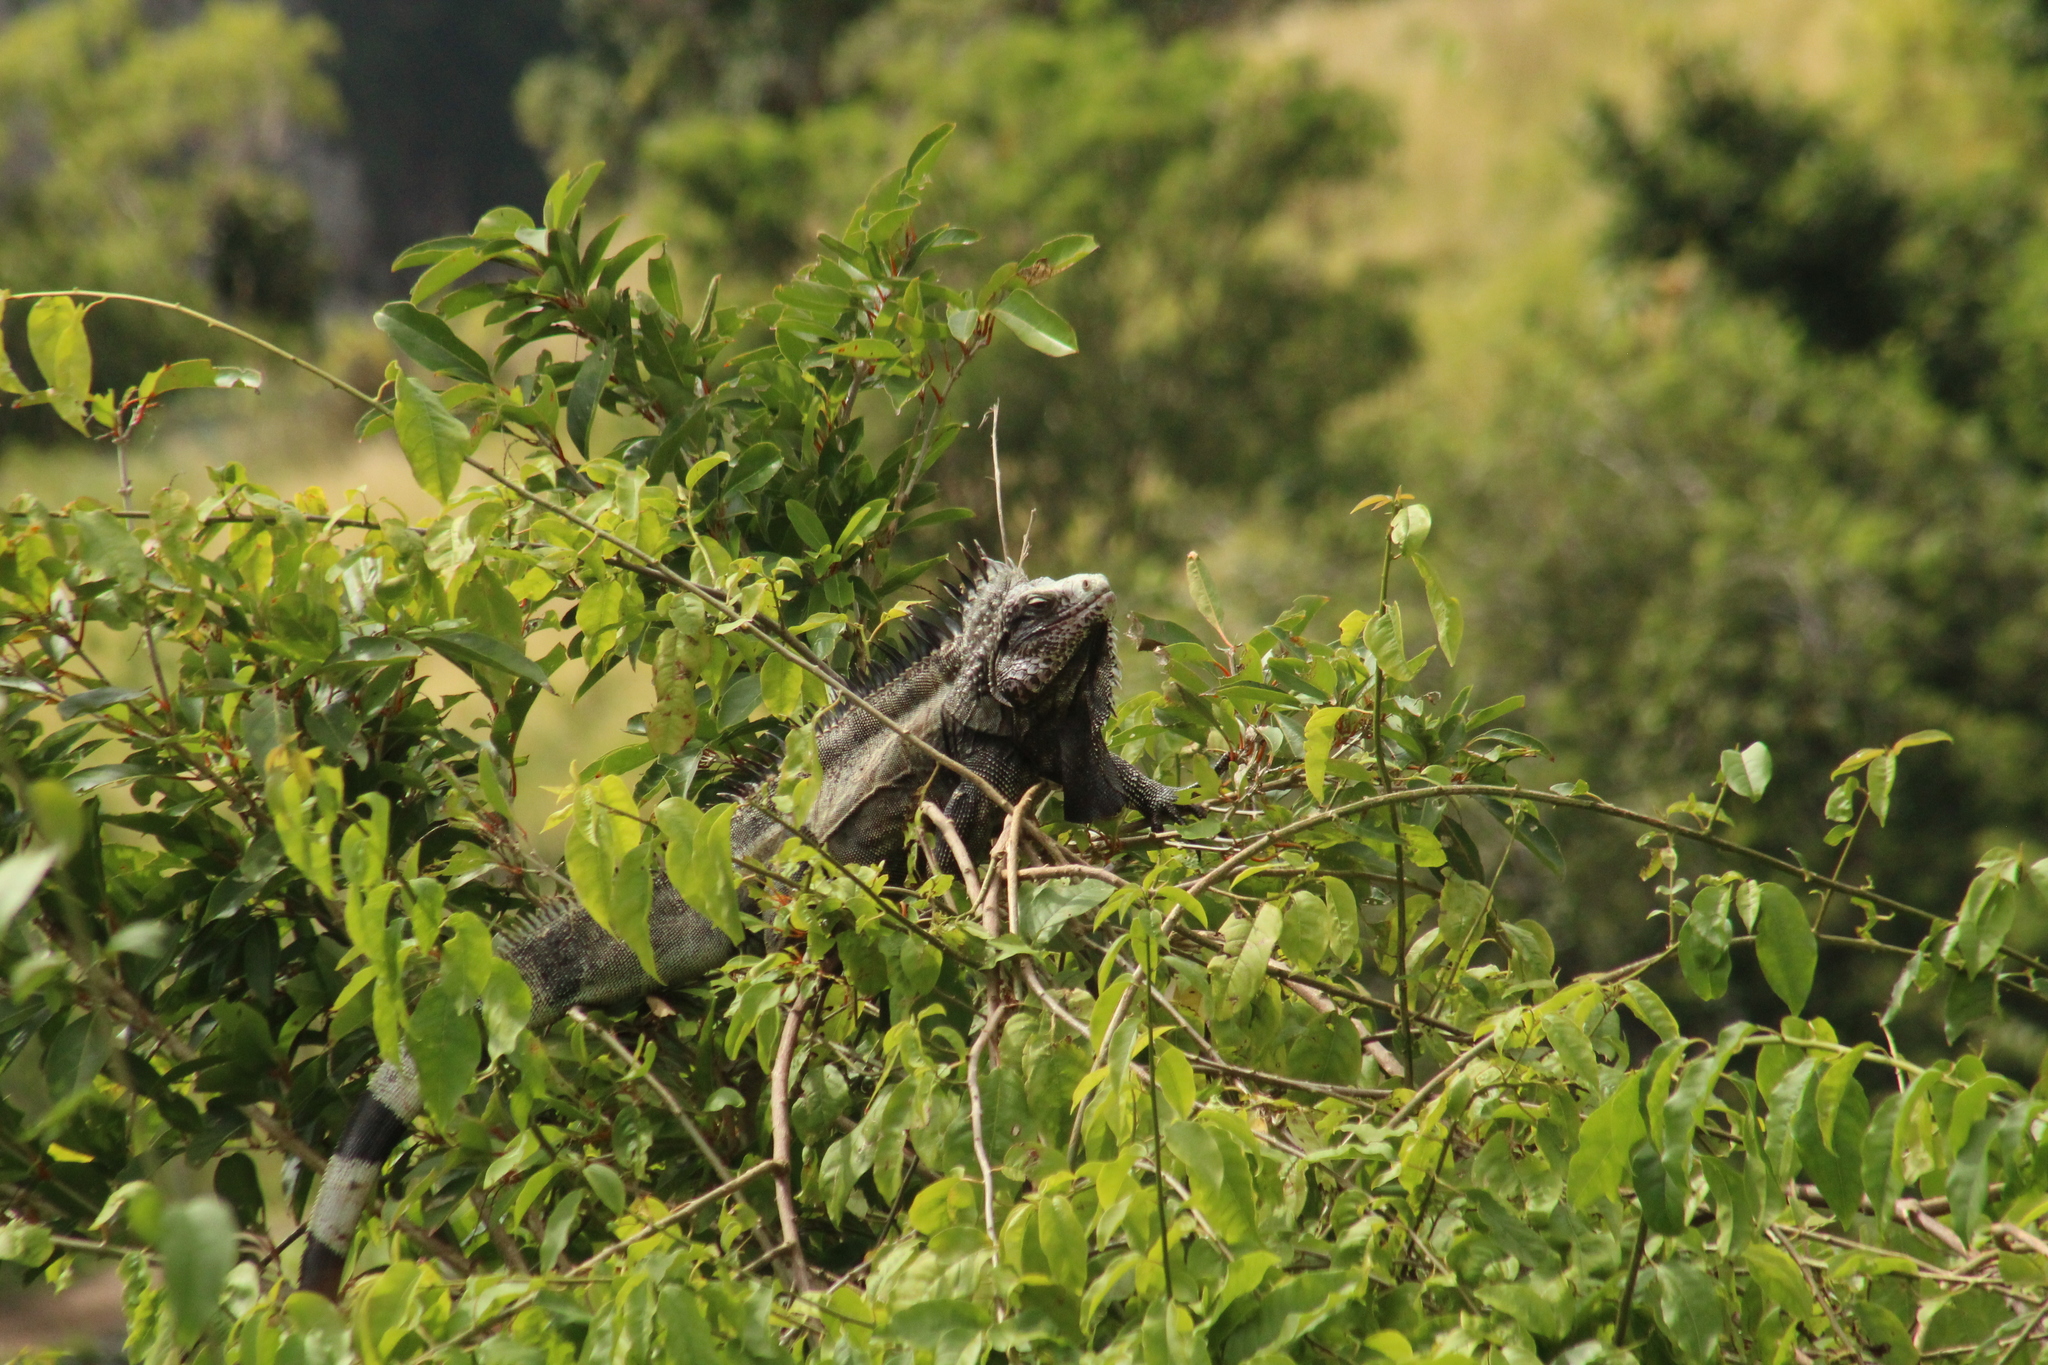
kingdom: Animalia
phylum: Chordata
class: Squamata
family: Iguanidae
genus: Iguana
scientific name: Iguana iguana
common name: Green iguana
